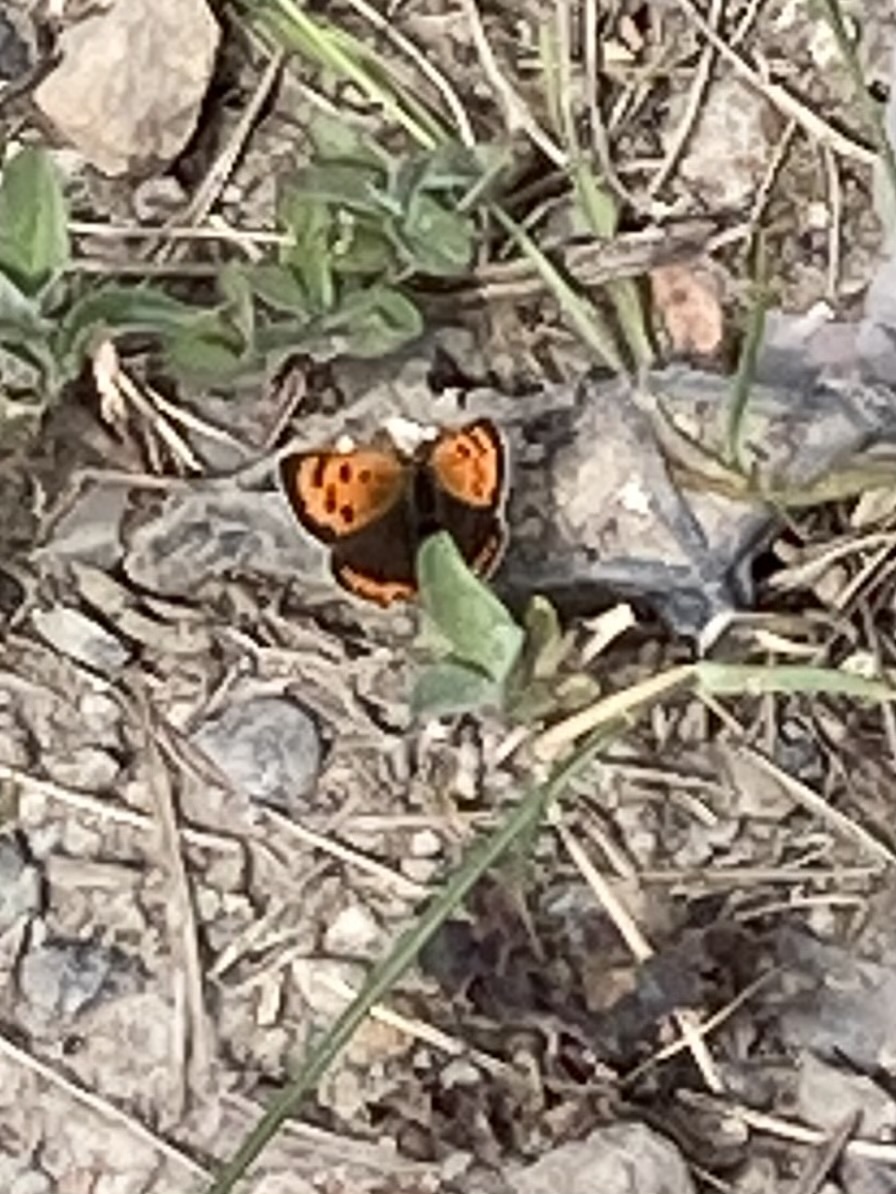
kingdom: Animalia
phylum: Arthropoda
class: Insecta
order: Lepidoptera
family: Lycaenidae
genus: Lycaena
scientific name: Lycaena phlaeas
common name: Small copper
